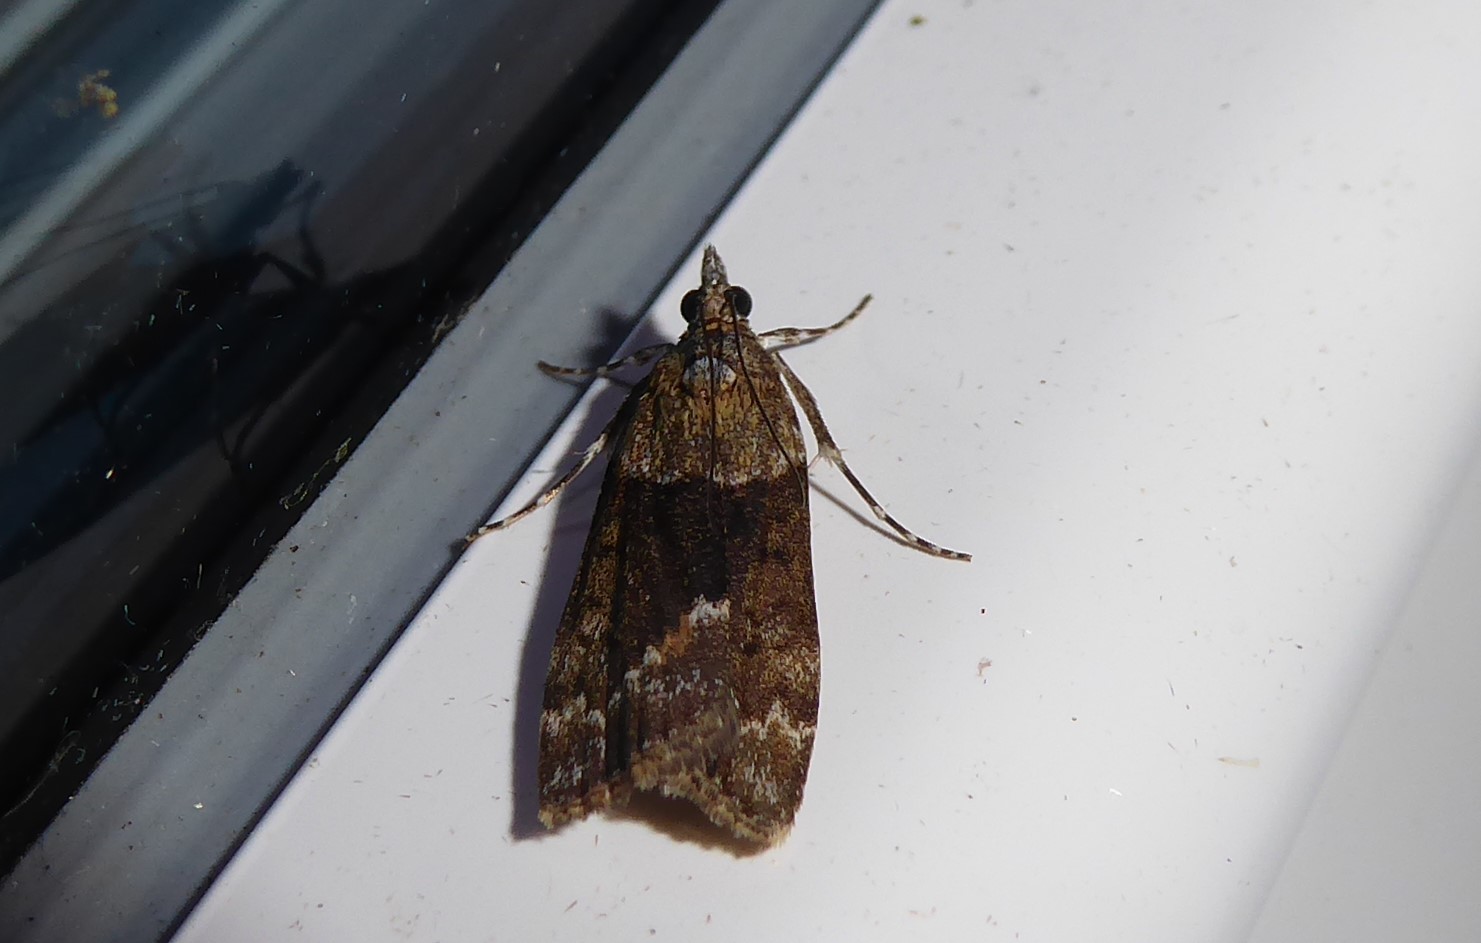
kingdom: Animalia
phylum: Arthropoda
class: Insecta
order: Lepidoptera
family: Crambidae
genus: Eudonia
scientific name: Eudonia submarginalis
